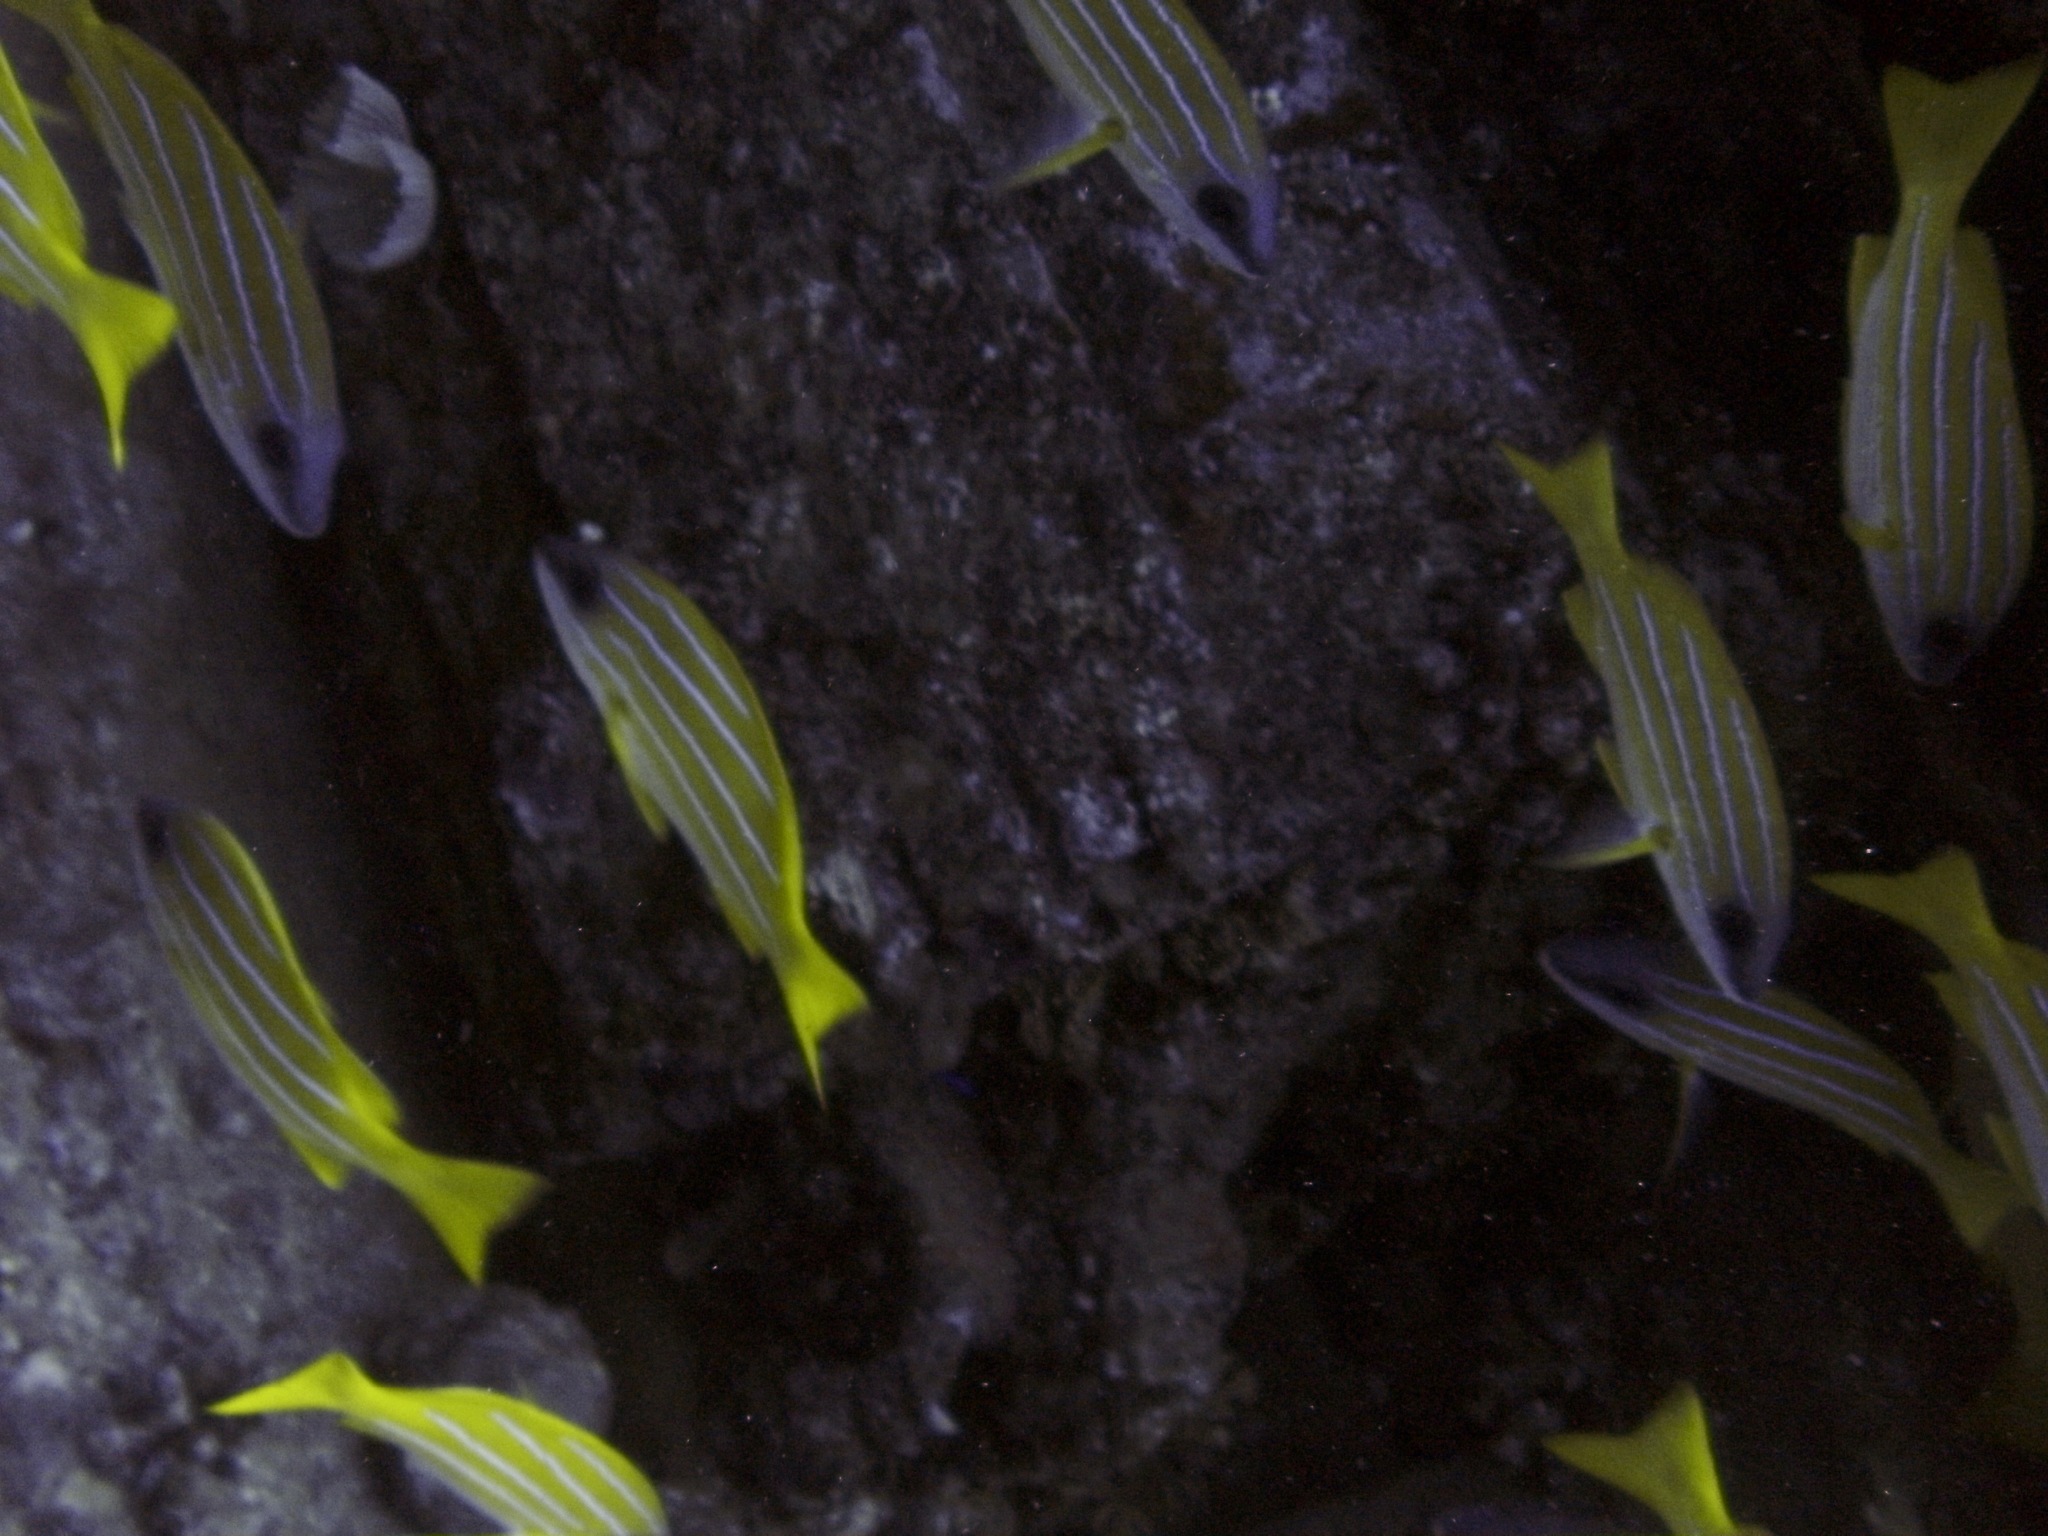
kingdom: Animalia
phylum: Chordata
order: Perciformes
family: Lutjanidae
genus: Lutjanus
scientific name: Lutjanus kasmira
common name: Common bluestripe snapper
